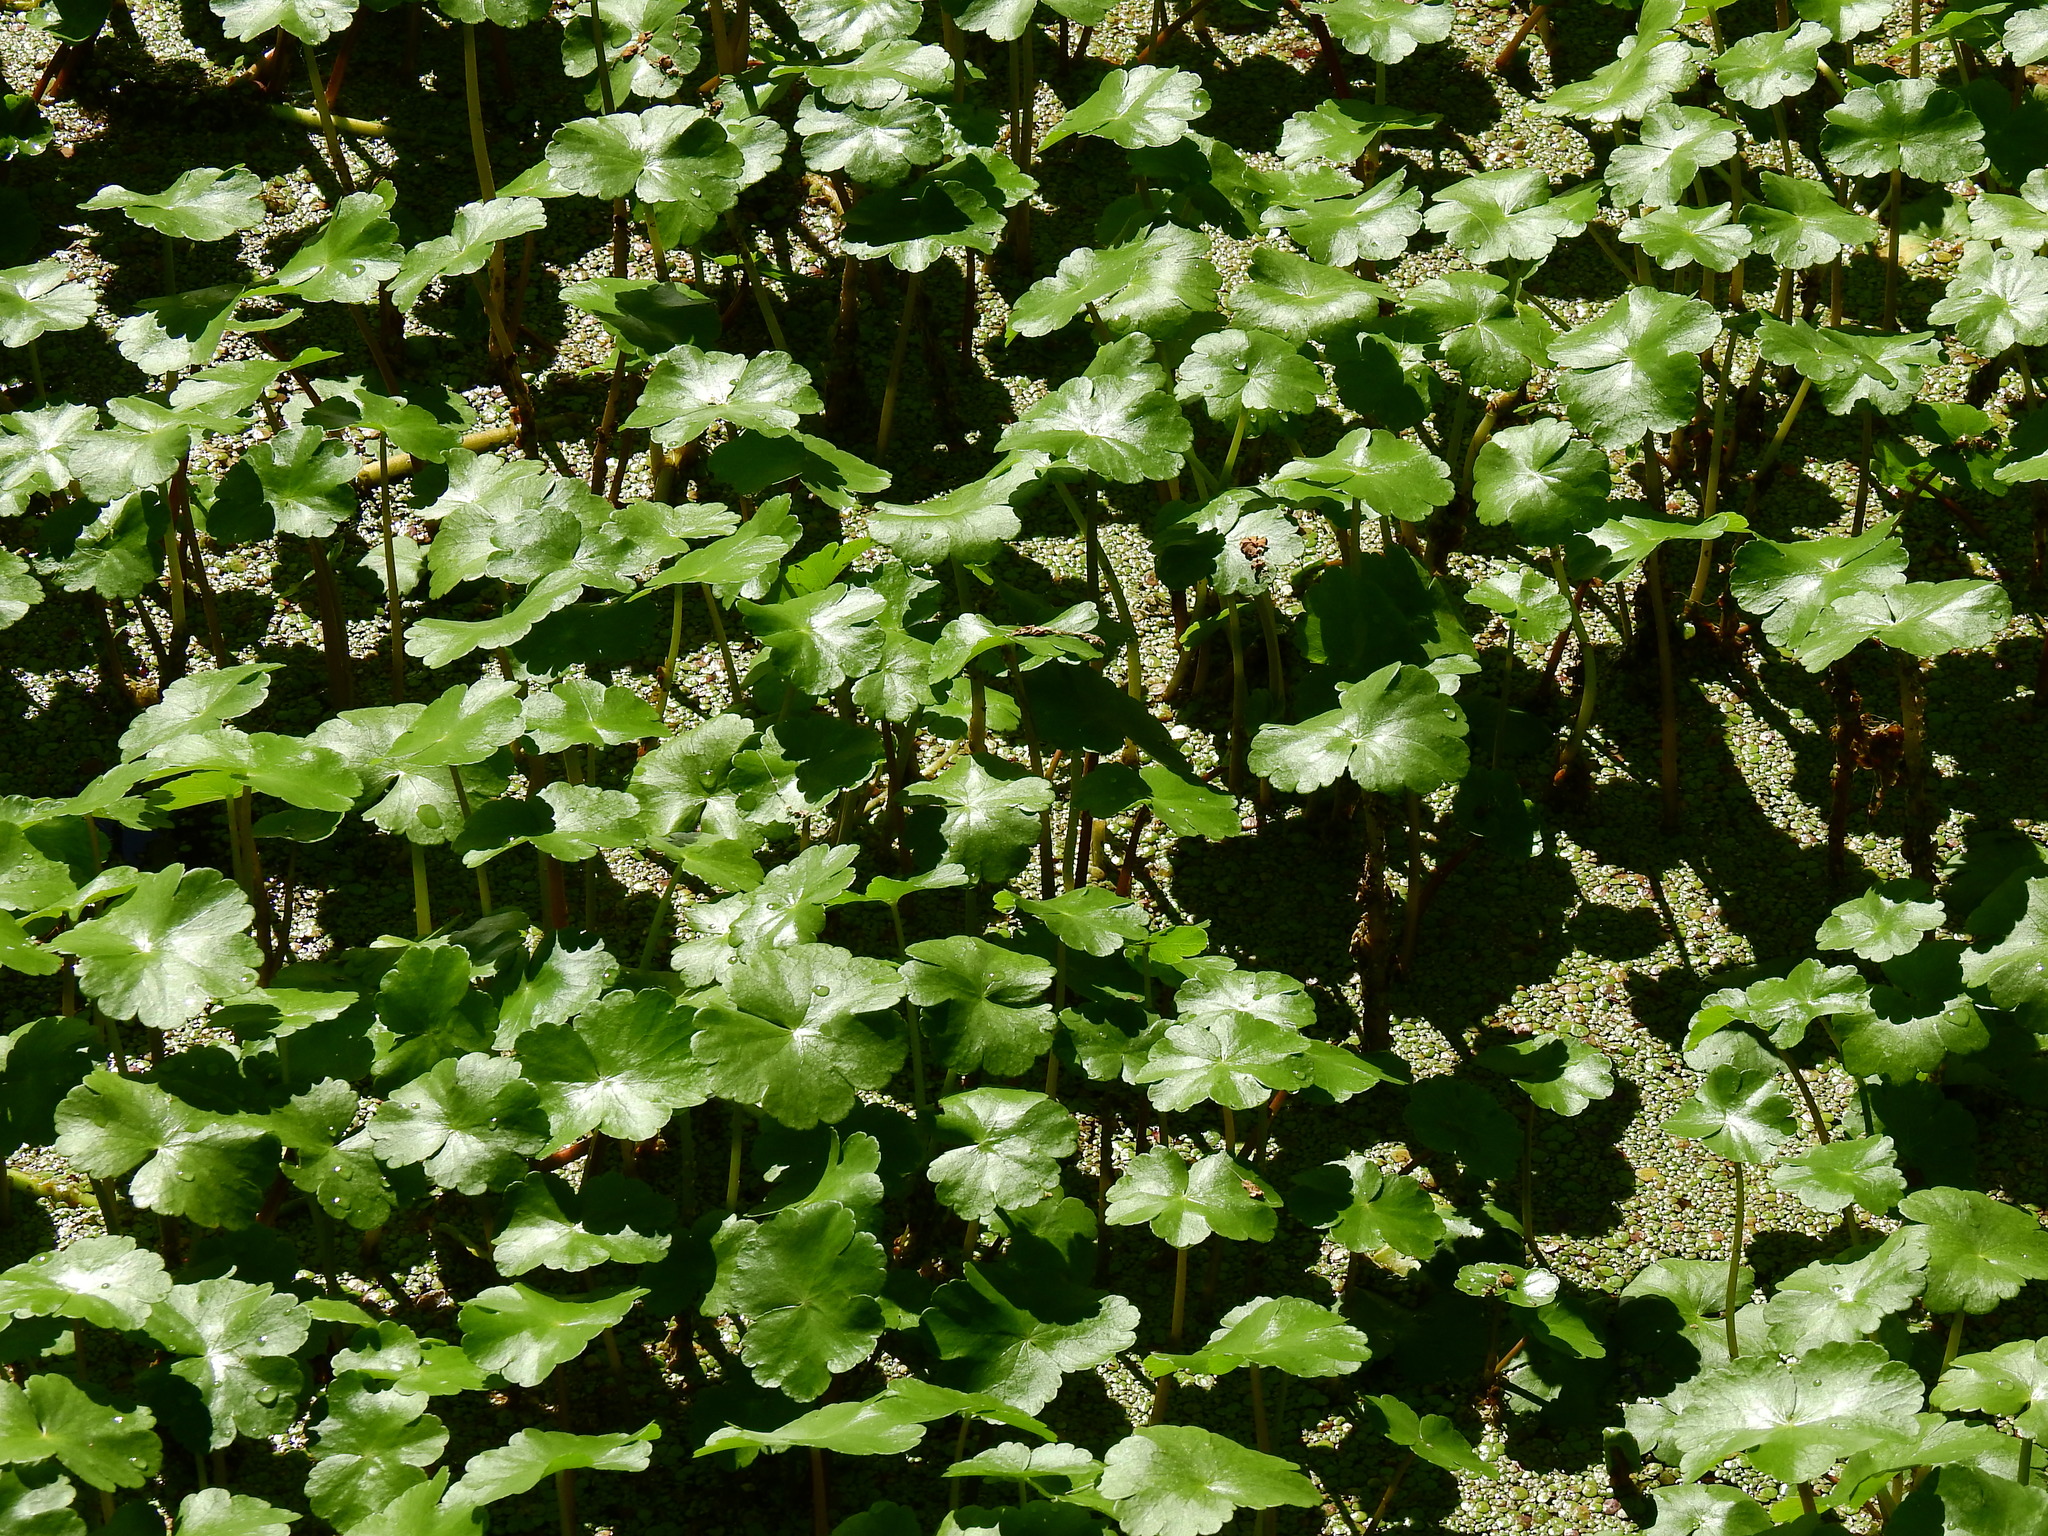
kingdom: Plantae
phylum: Tracheophyta
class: Magnoliopsida
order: Apiales
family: Araliaceae
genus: Hydrocotyle
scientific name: Hydrocotyle ranunculoides
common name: Floating pennywort
